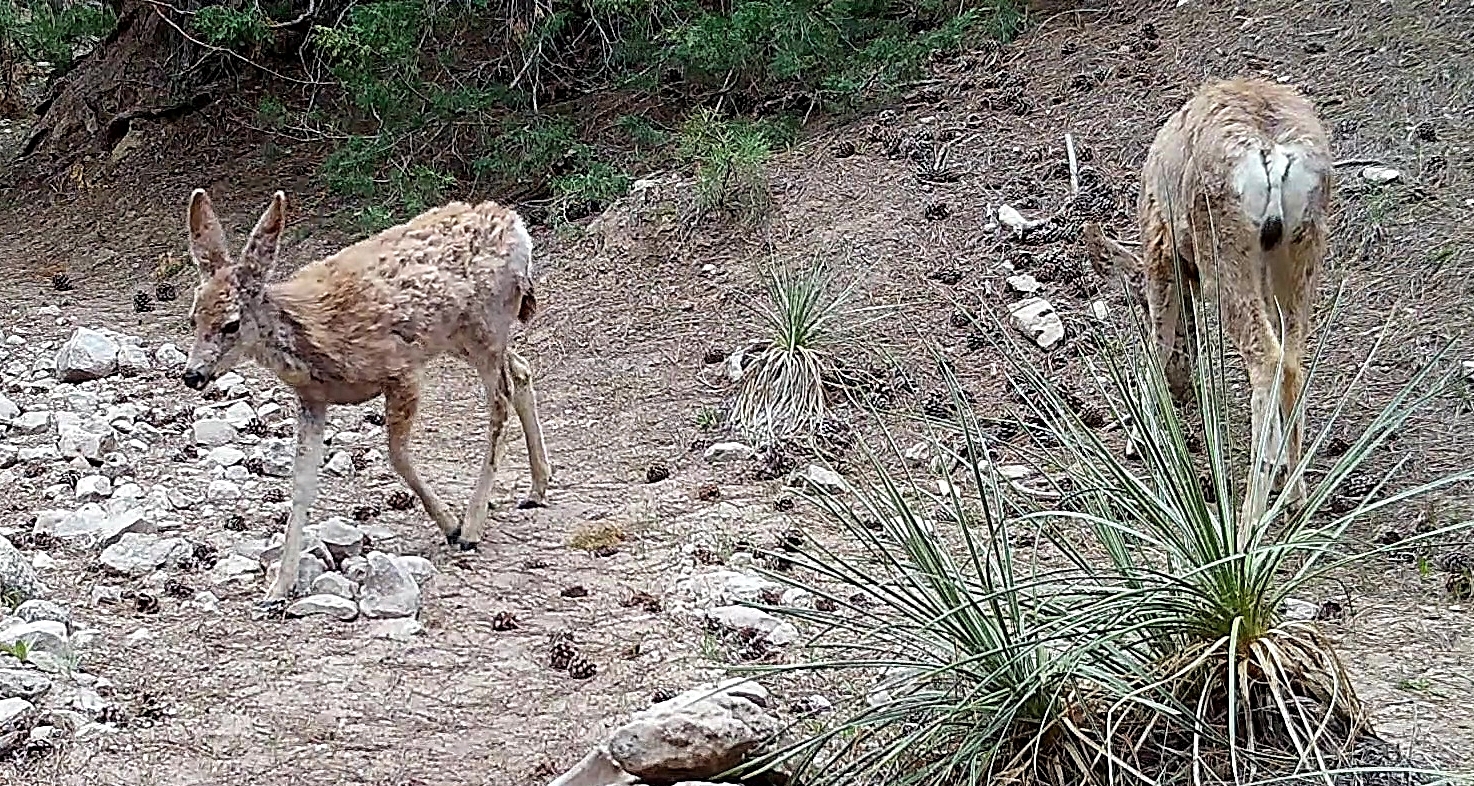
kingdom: Animalia
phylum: Chordata
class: Mammalia
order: Artiodactyla
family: Cervidae
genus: Odocoileus
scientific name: Odocoileus hemionus
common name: Mule deer
